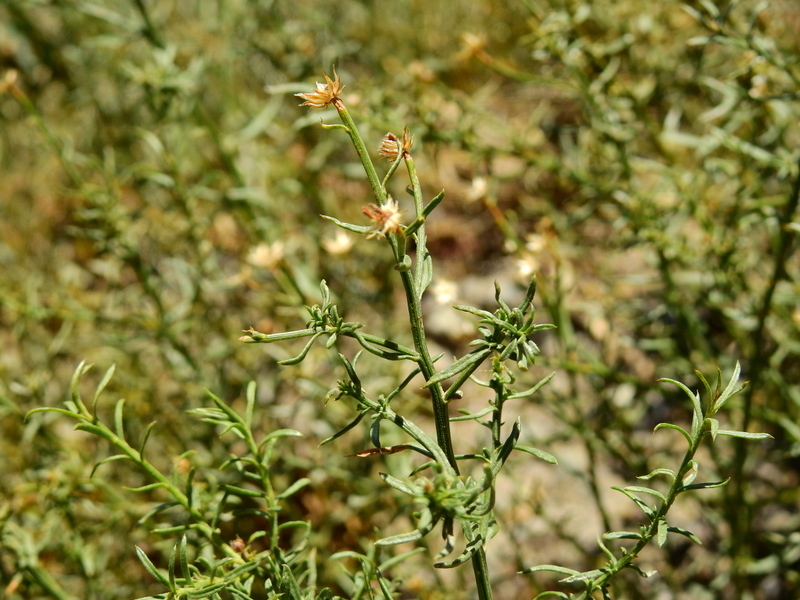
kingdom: Plantae
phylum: Tracheophyta
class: Magnoliopsida
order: Asterales
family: Asteraceae
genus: Baccharis
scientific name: Baccharis gilliesii
